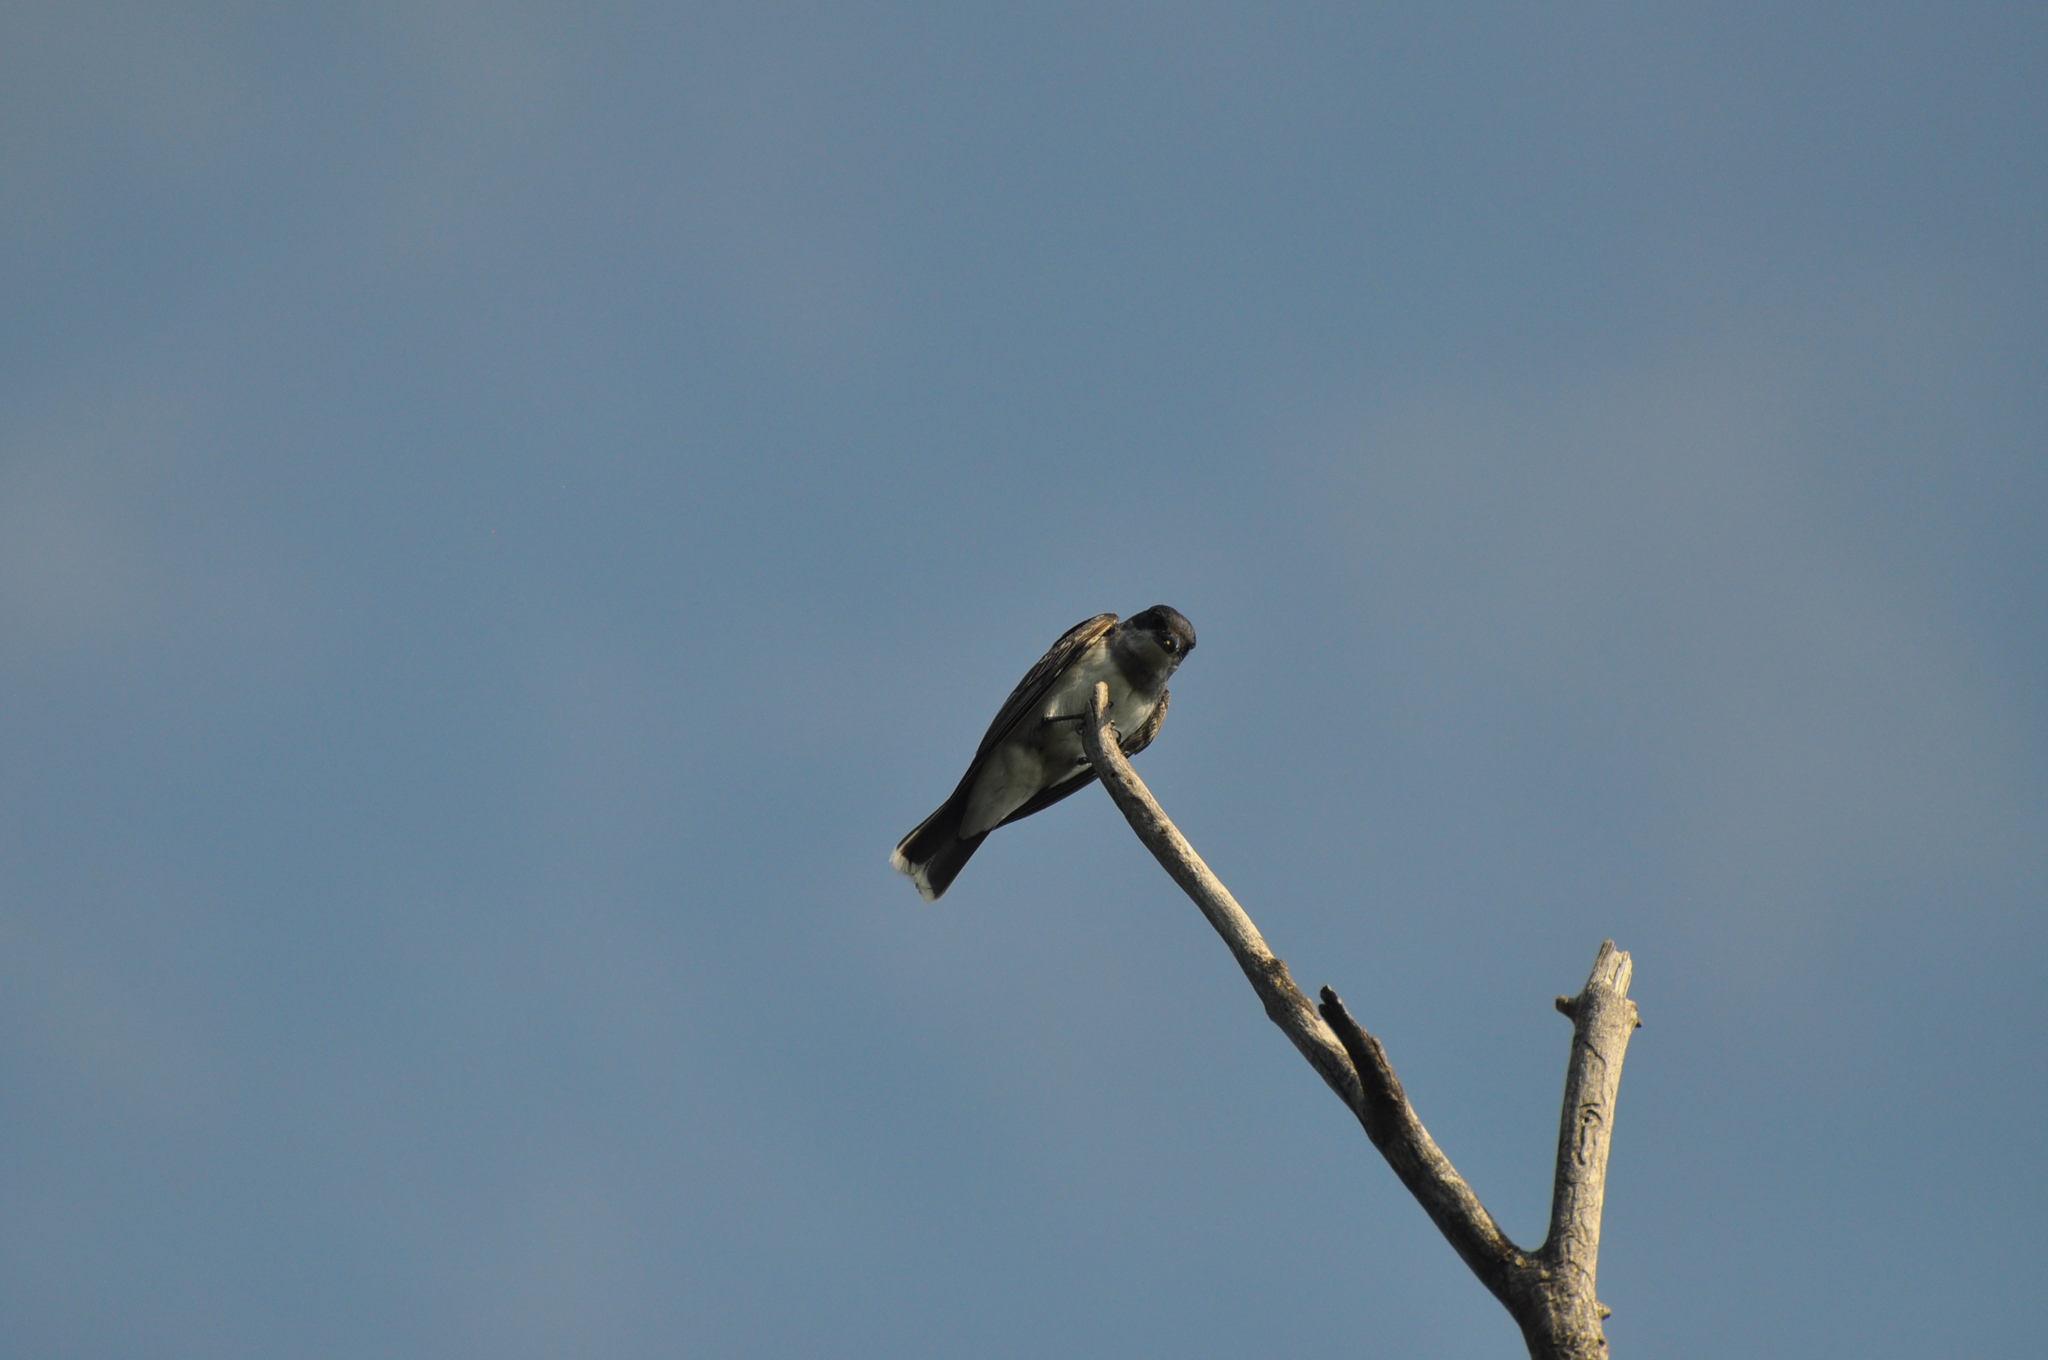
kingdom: Animalia
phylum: Chordata
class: Aves
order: Passeriformes
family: Tyrannidae
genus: Tyrannus
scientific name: Tyrannus tyrannus
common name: Eastern kingbird
